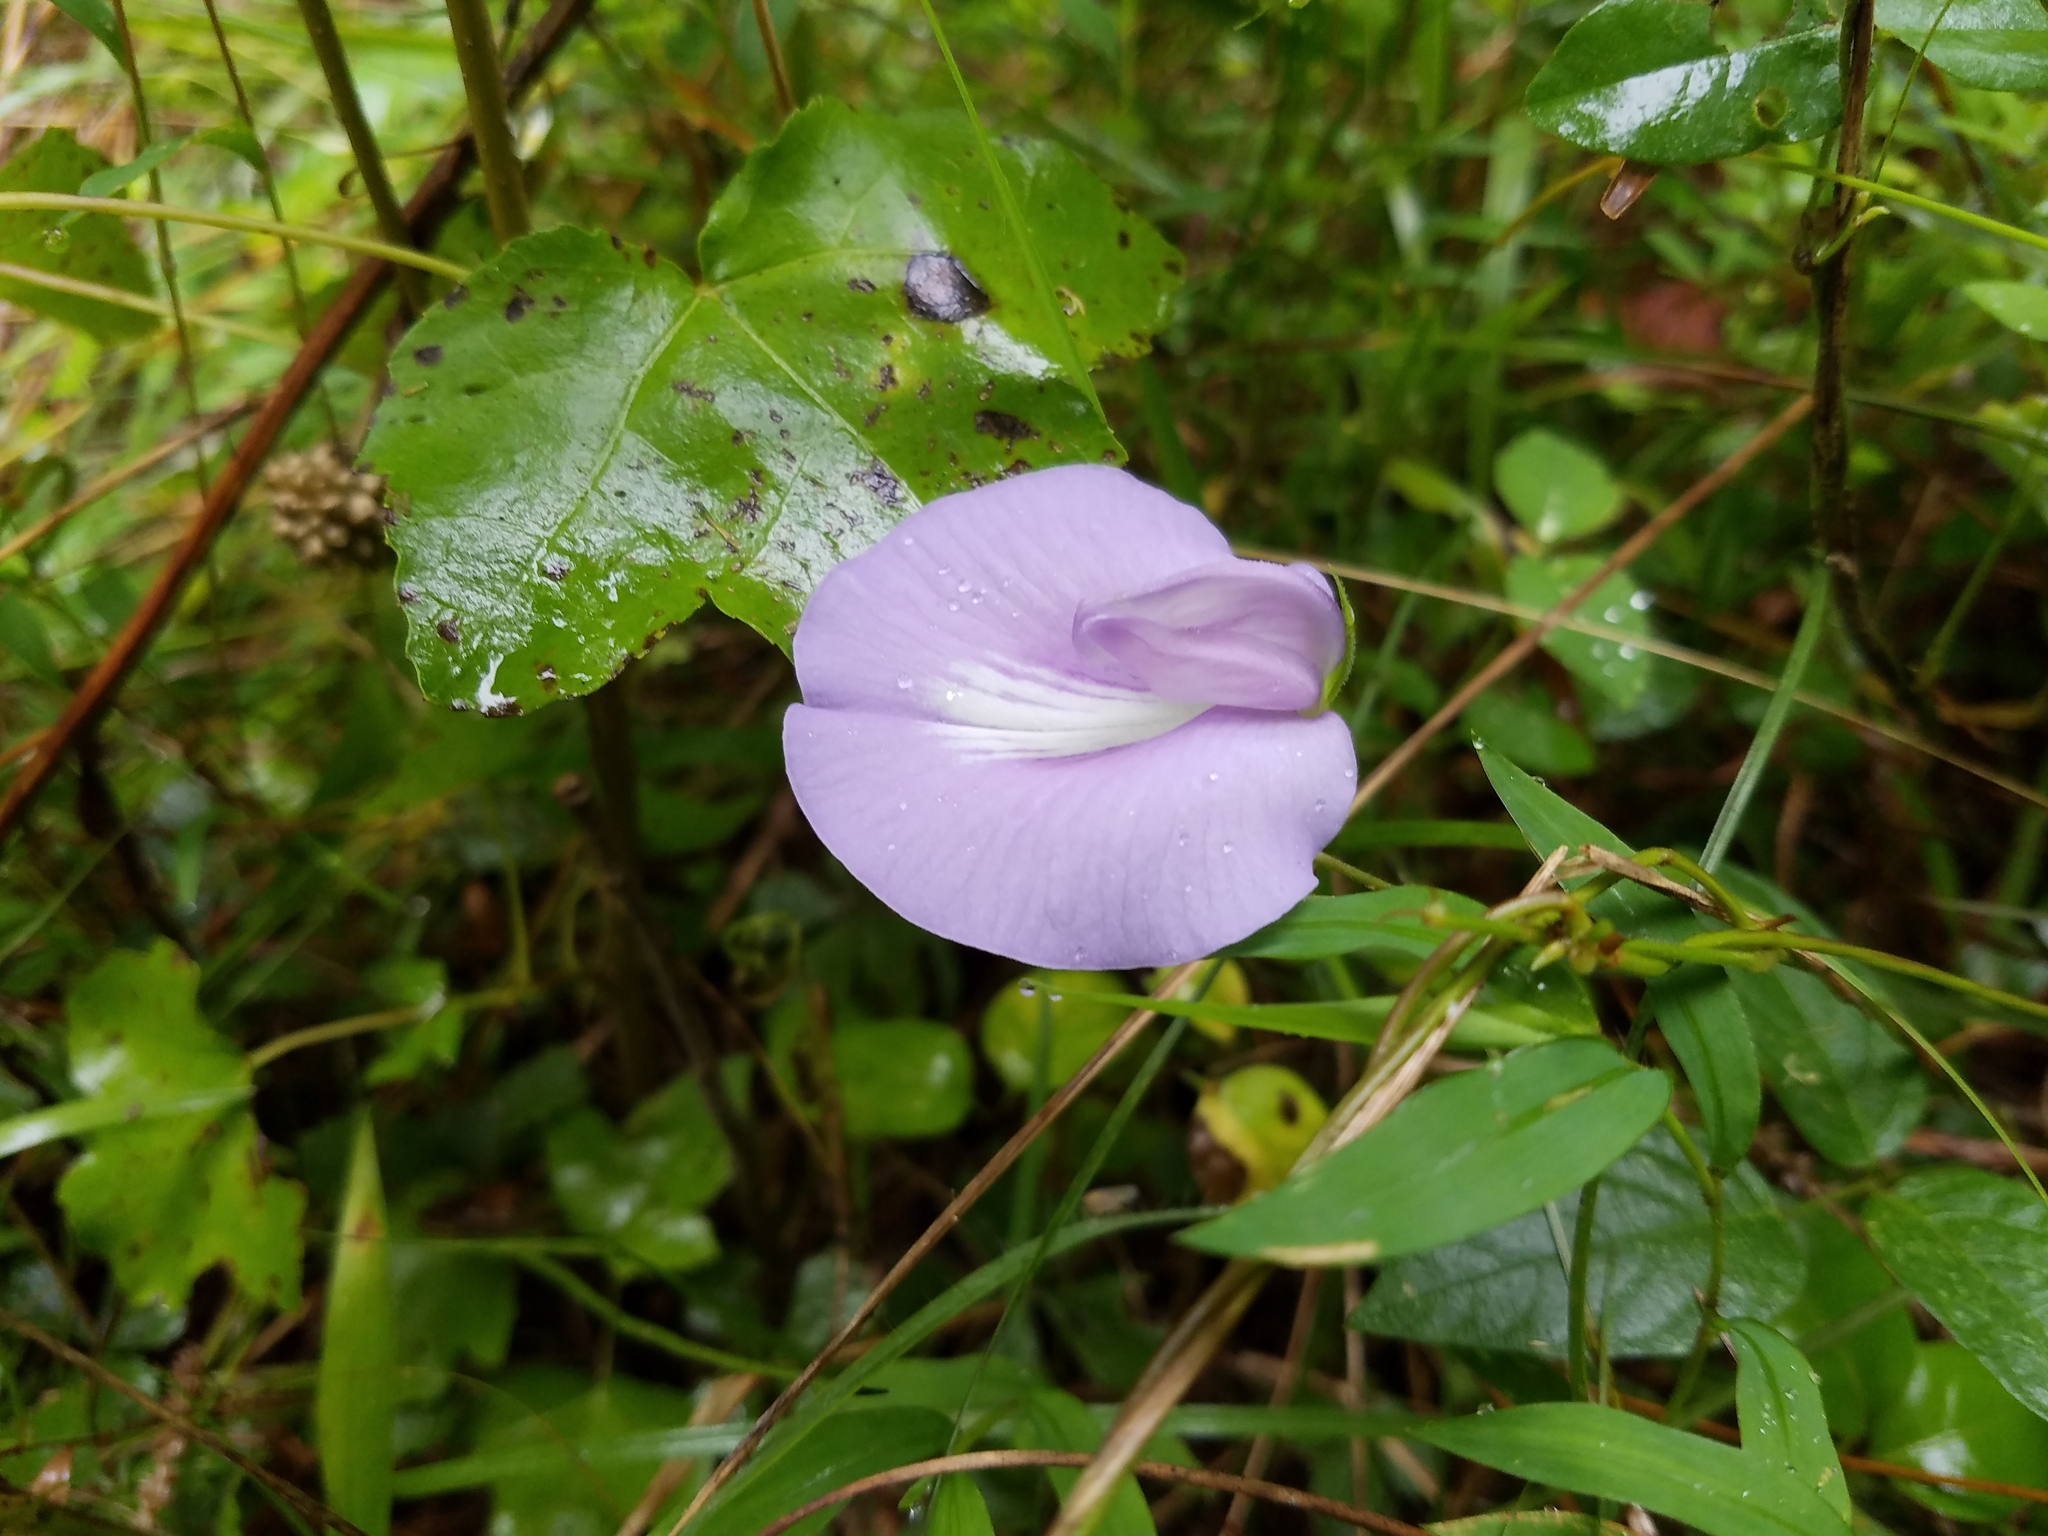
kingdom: Plantae
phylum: Tracheophyta
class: Magnoliopsida
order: Fabales
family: Fabaceae
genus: Centrosema
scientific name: Centrosema virginianum
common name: Butterfly-pea
